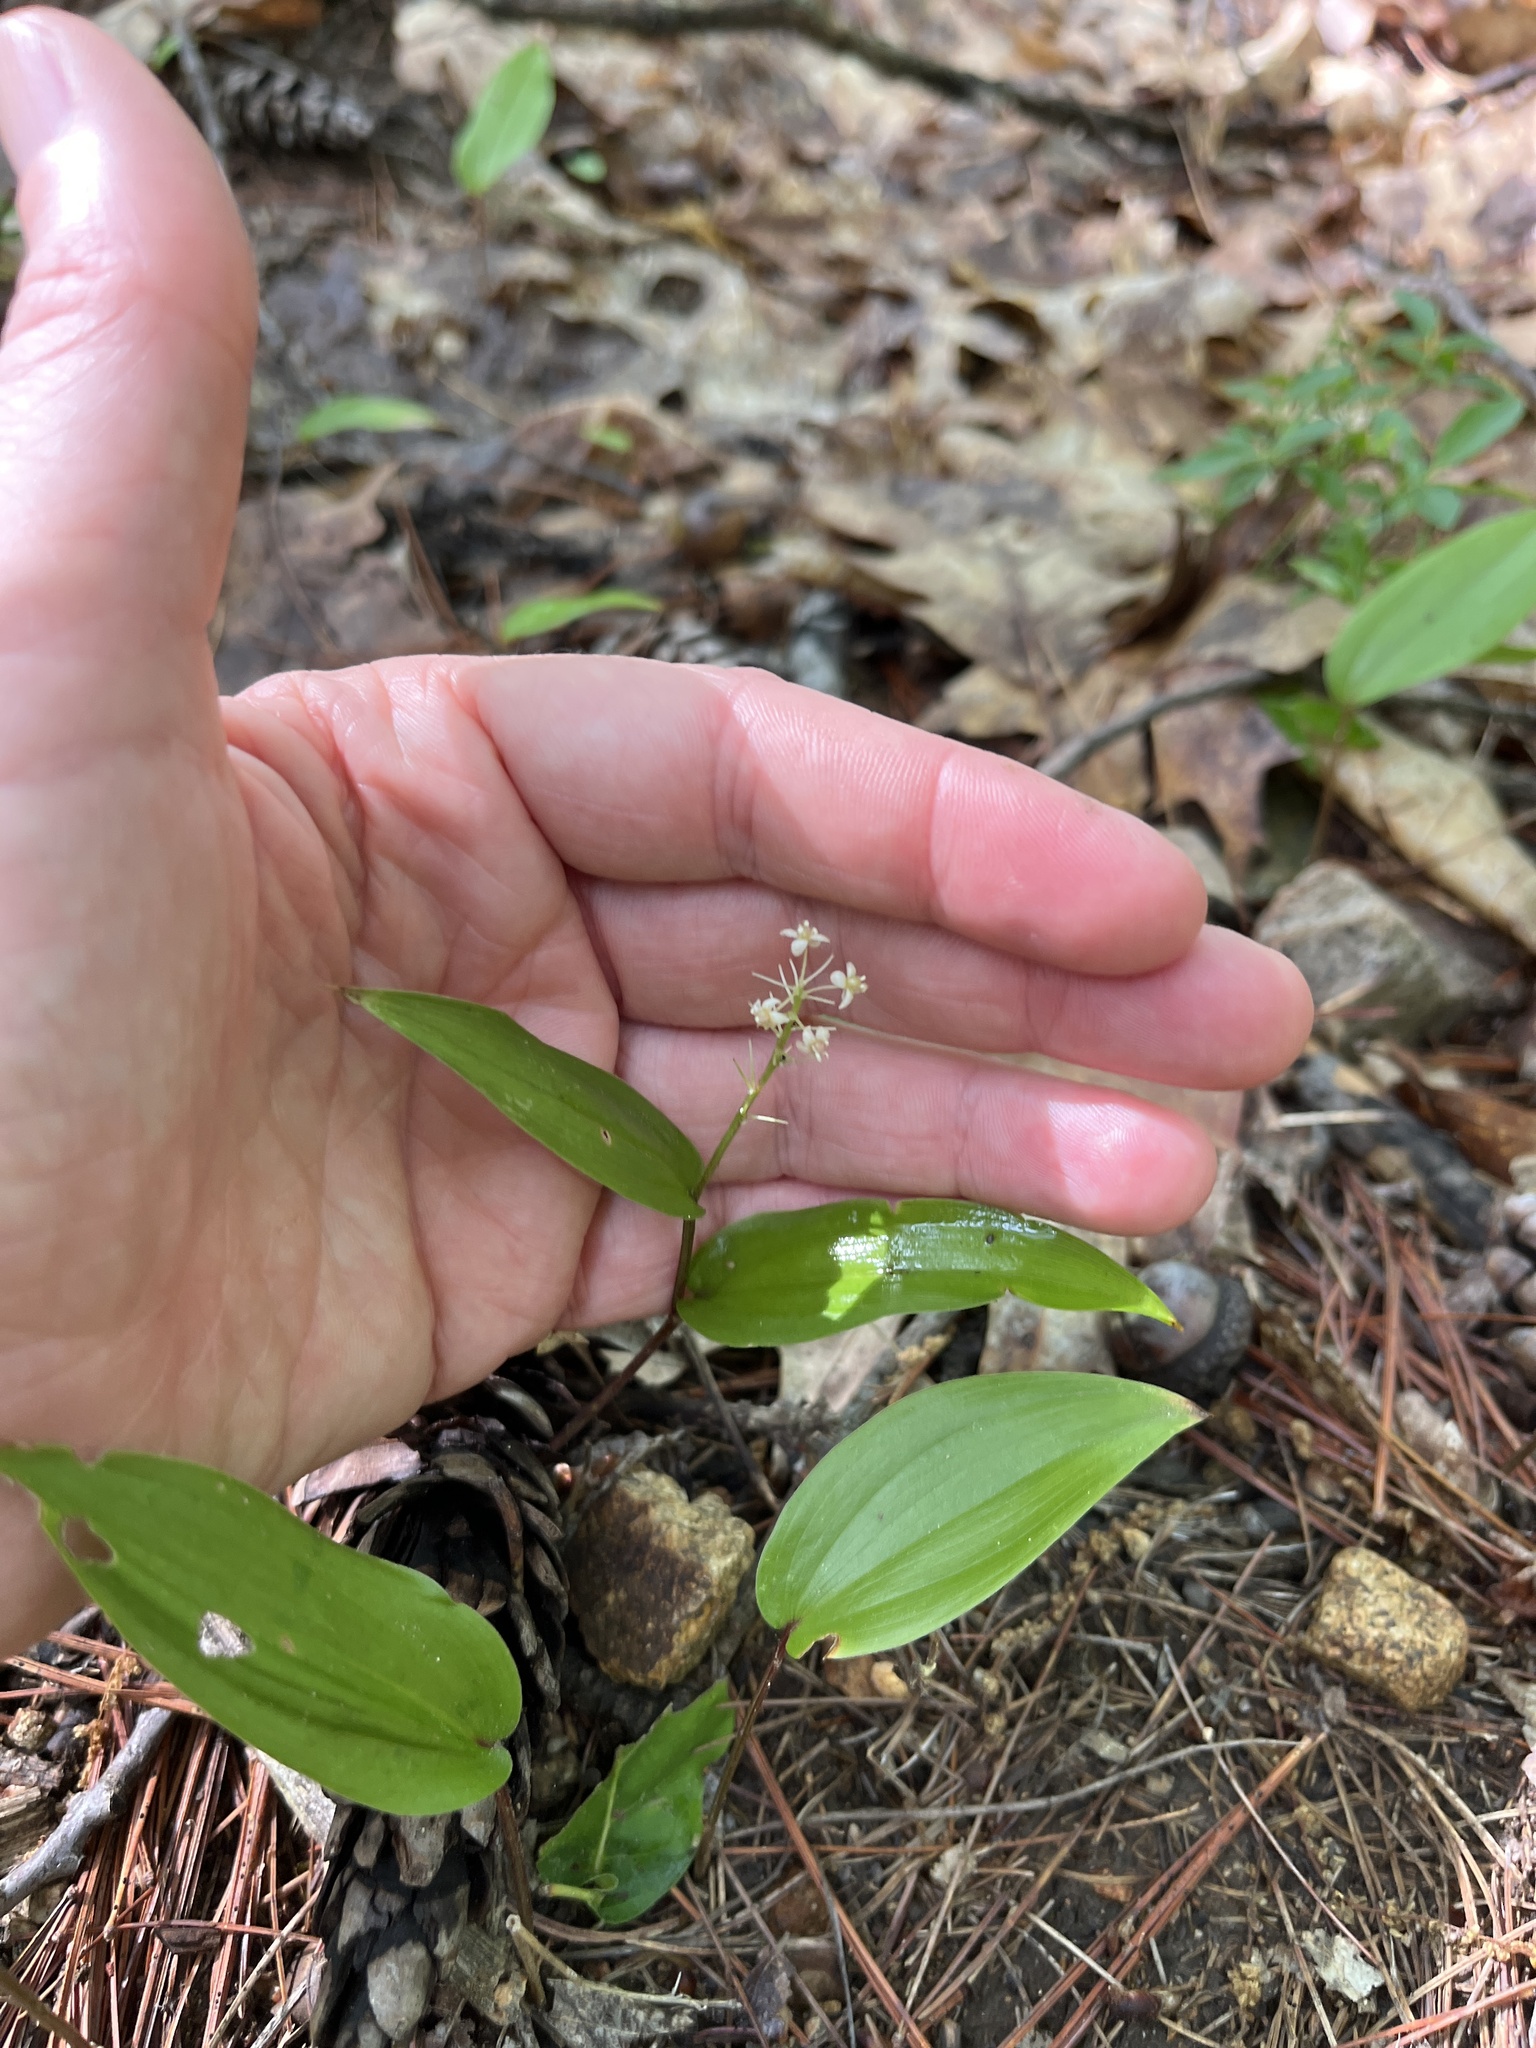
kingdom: Plantae
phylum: Tracheophyta
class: Liliopsida
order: Asparagales
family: Asparagaceae
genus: Maianthemum
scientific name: Maianthemum canadense
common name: False lily-of-the-valley
